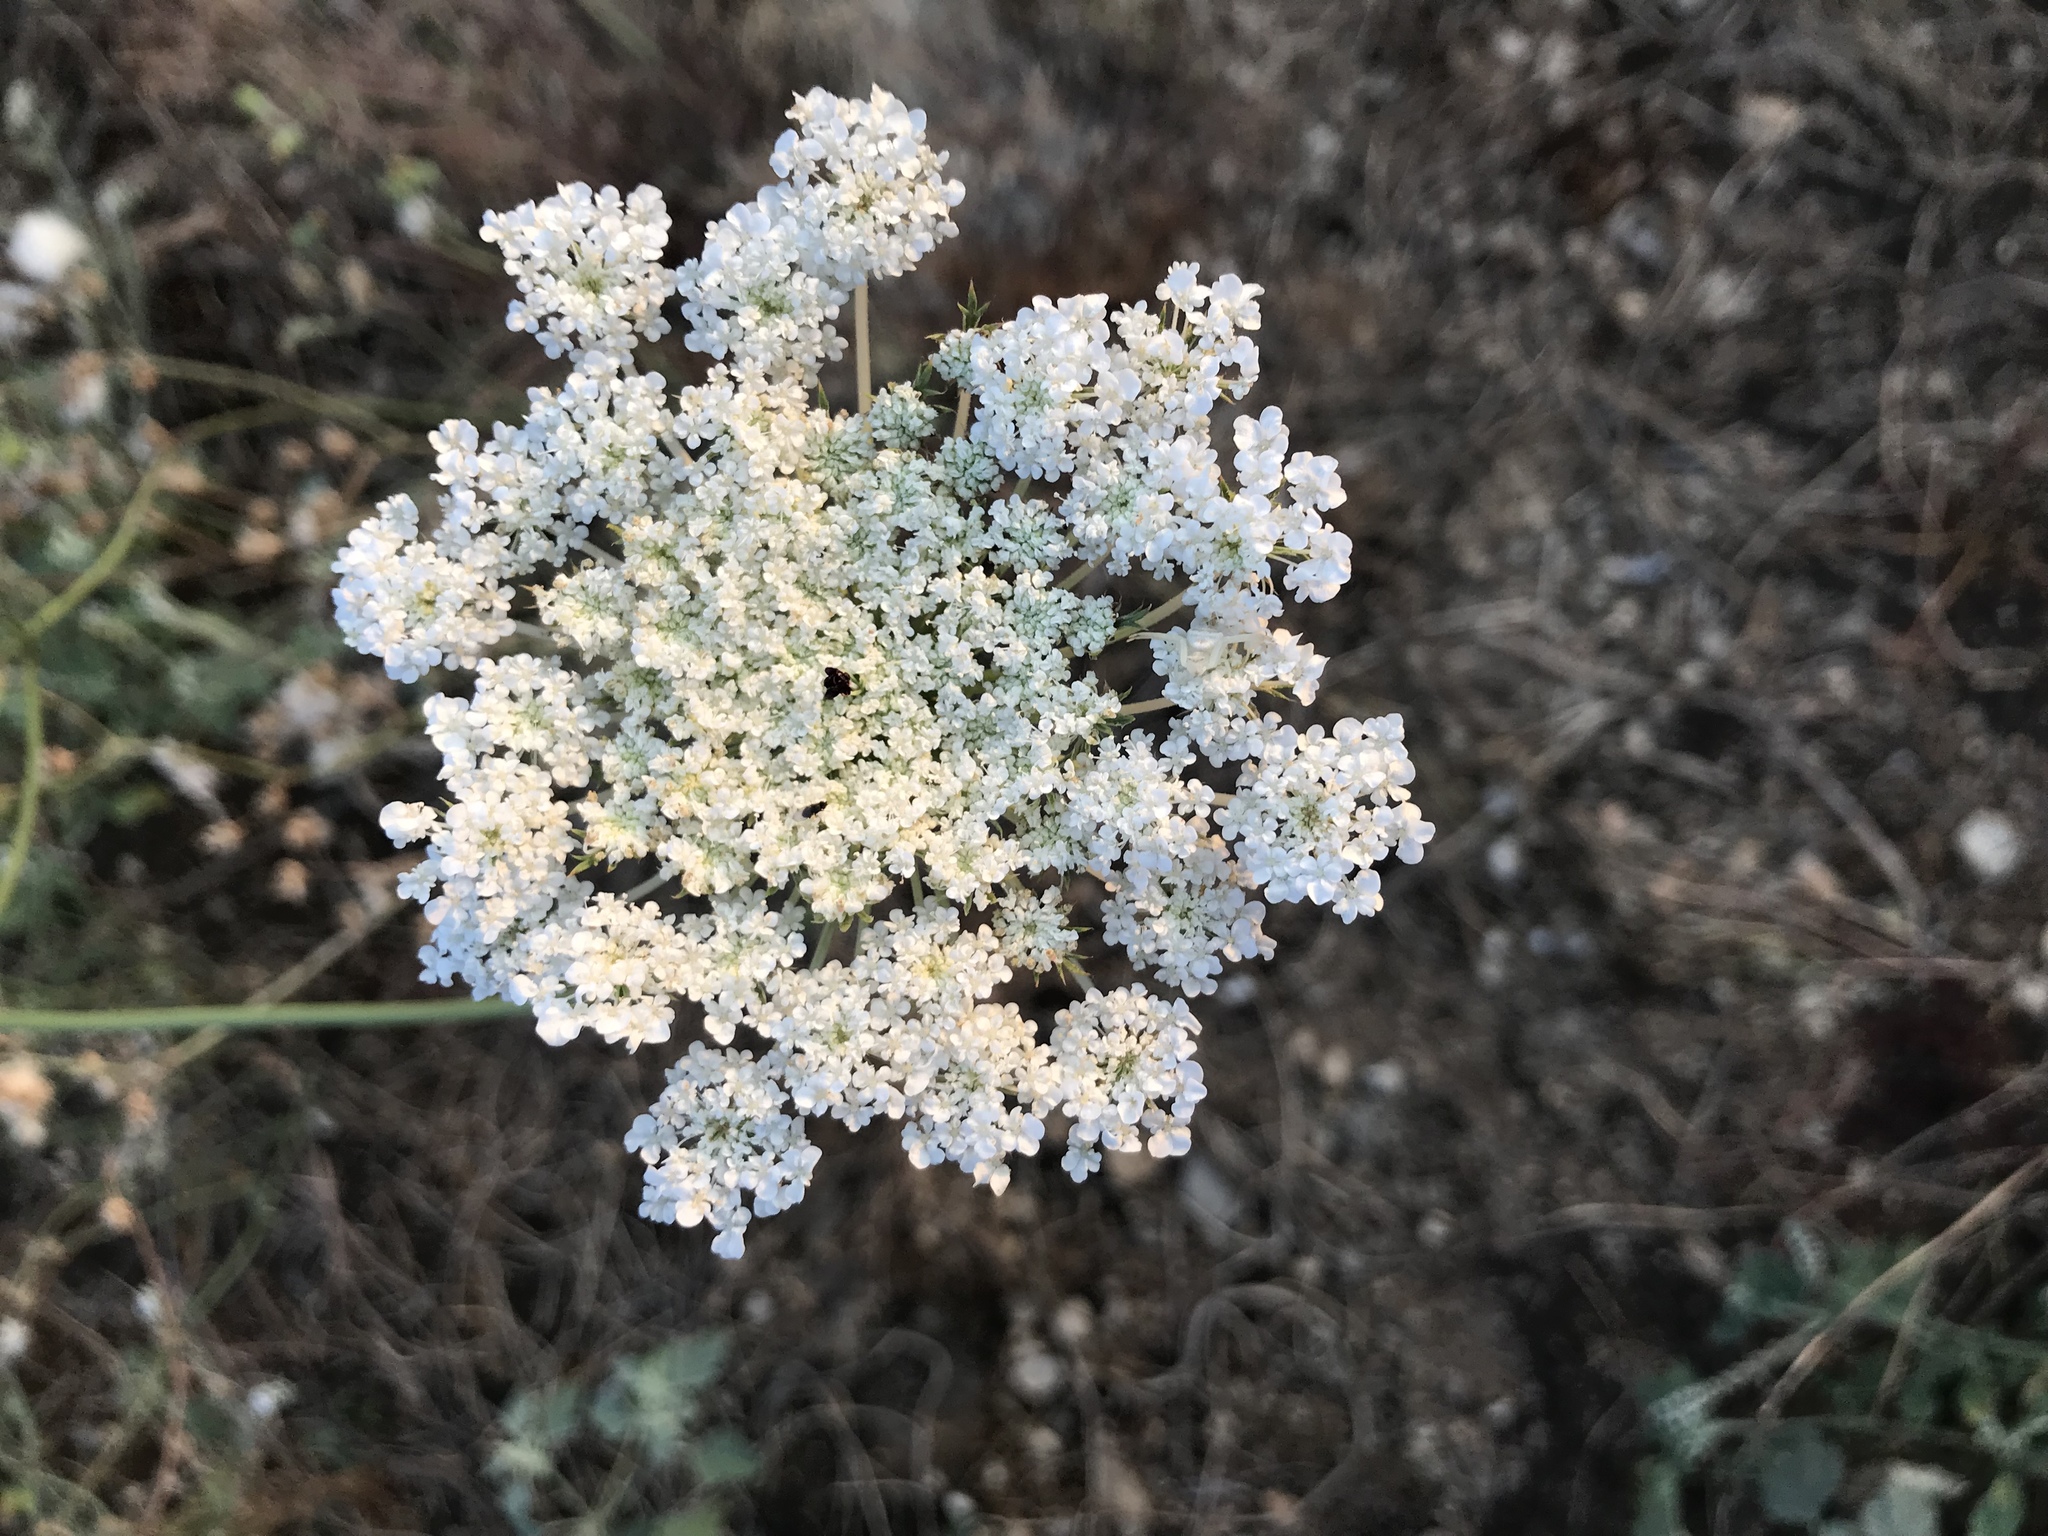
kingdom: Plantae
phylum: Tracheophyta
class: Magnoliopsida
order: Apiales
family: Apiaceae
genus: Daucus
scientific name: Daucus carota
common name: Wild carrot
